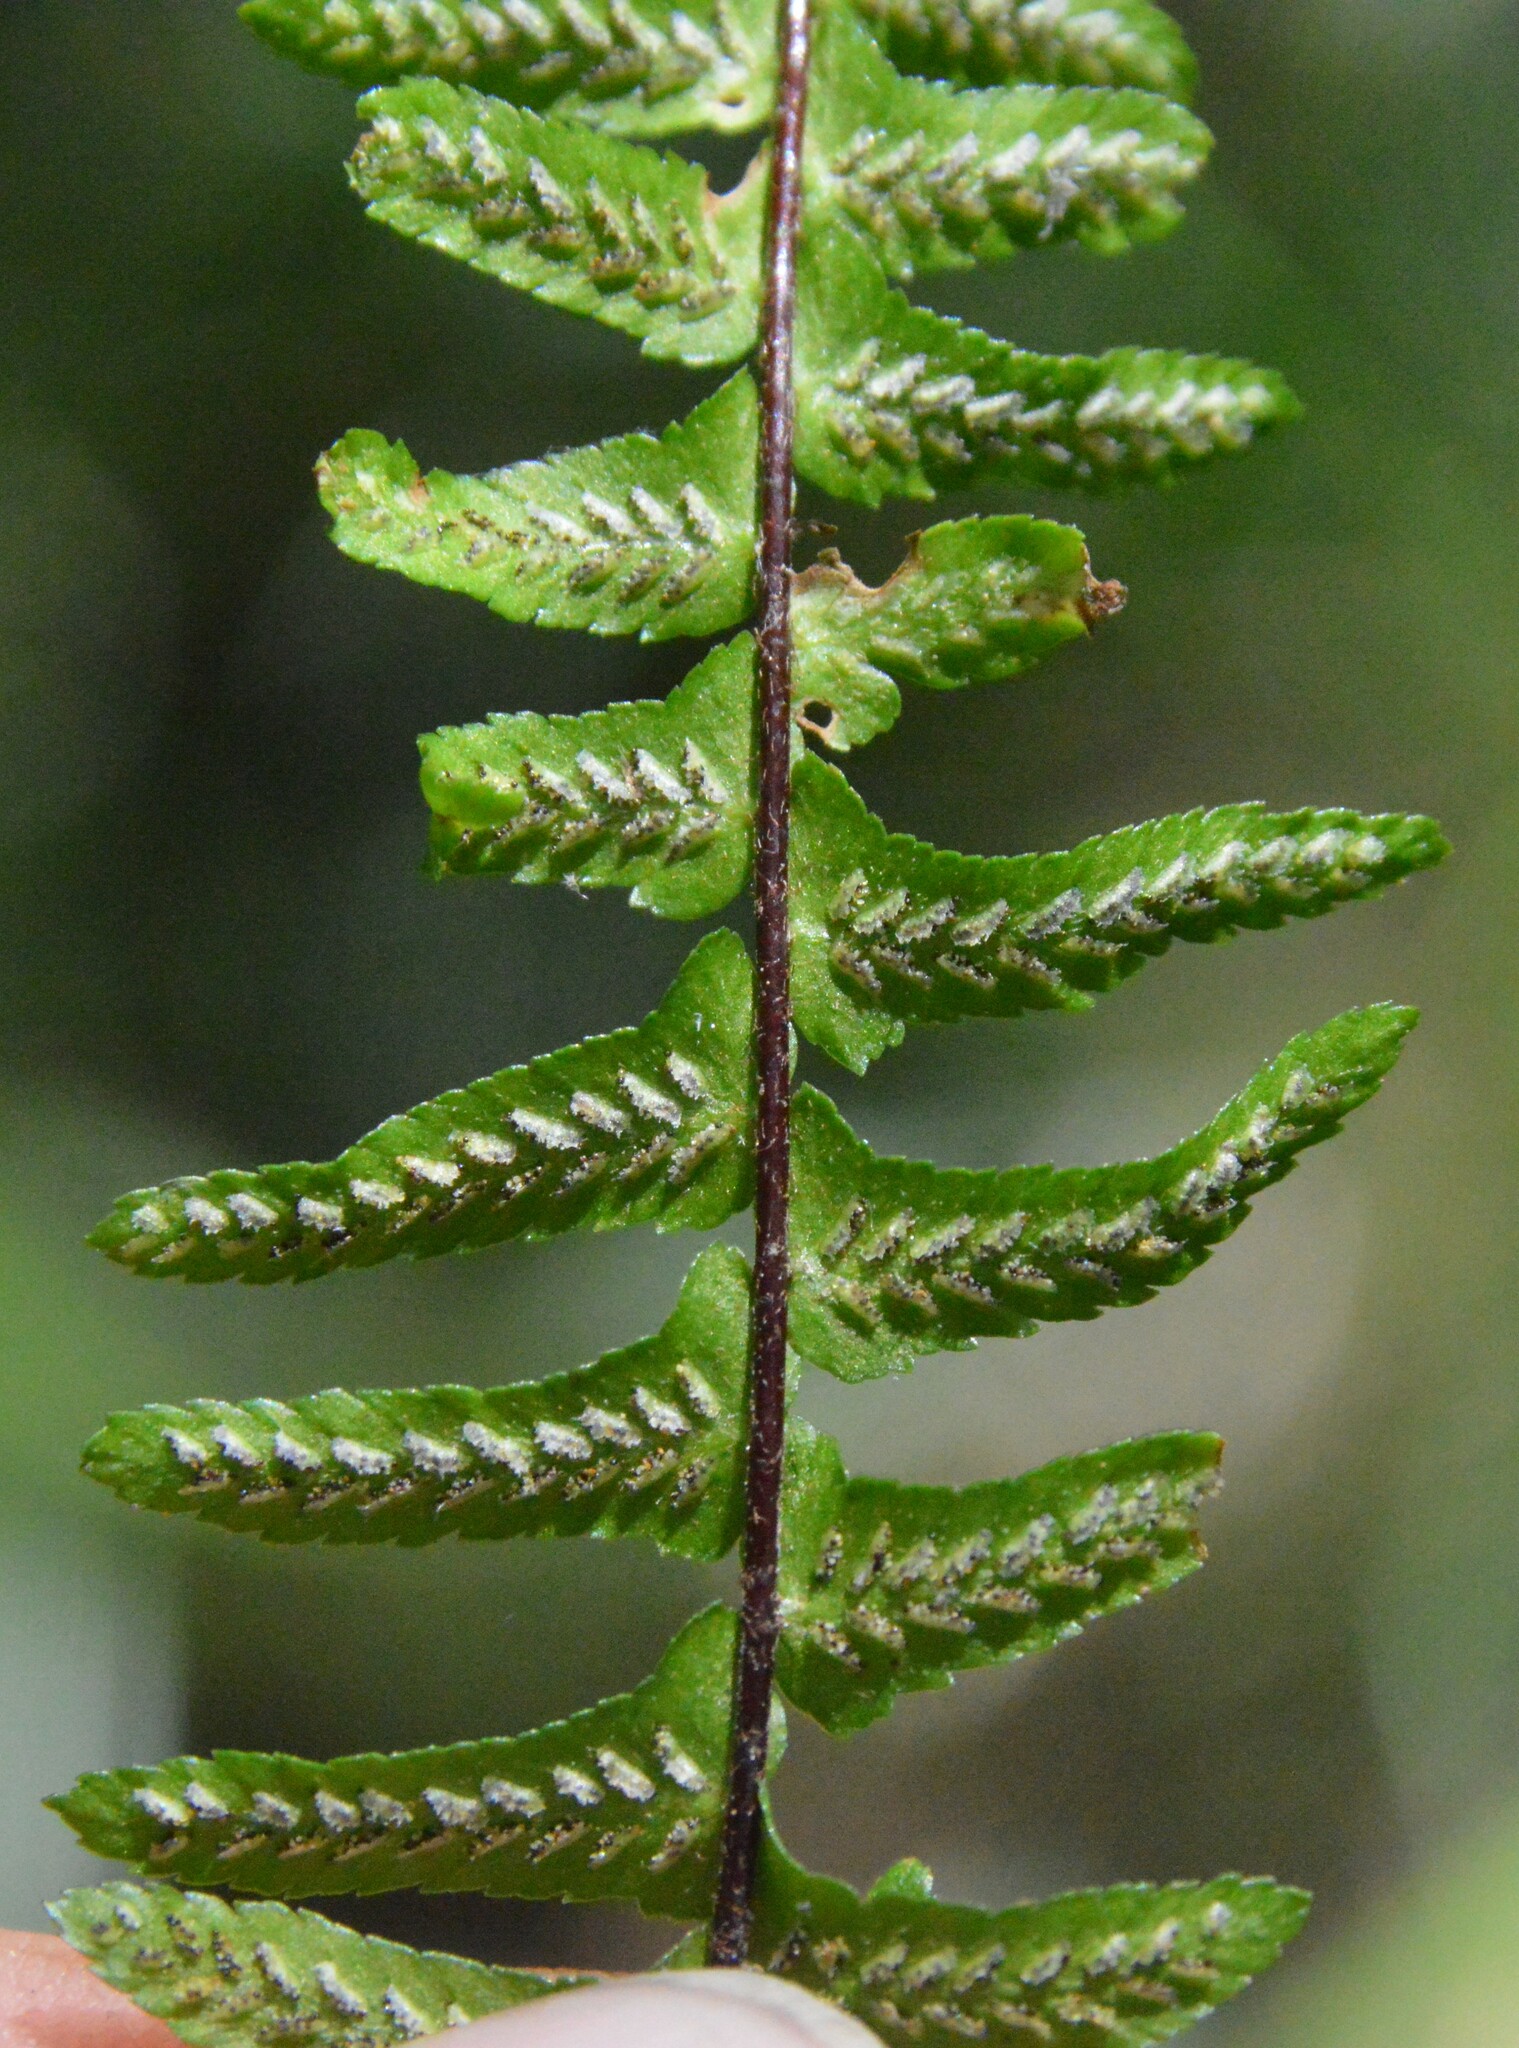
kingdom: Plantae
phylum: Tracheophyta
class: Polypodiopsida
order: Polypodiales
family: Aspleniaceae
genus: Asplenium
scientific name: Asplenium platyneuron
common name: Ebony spleenwort
